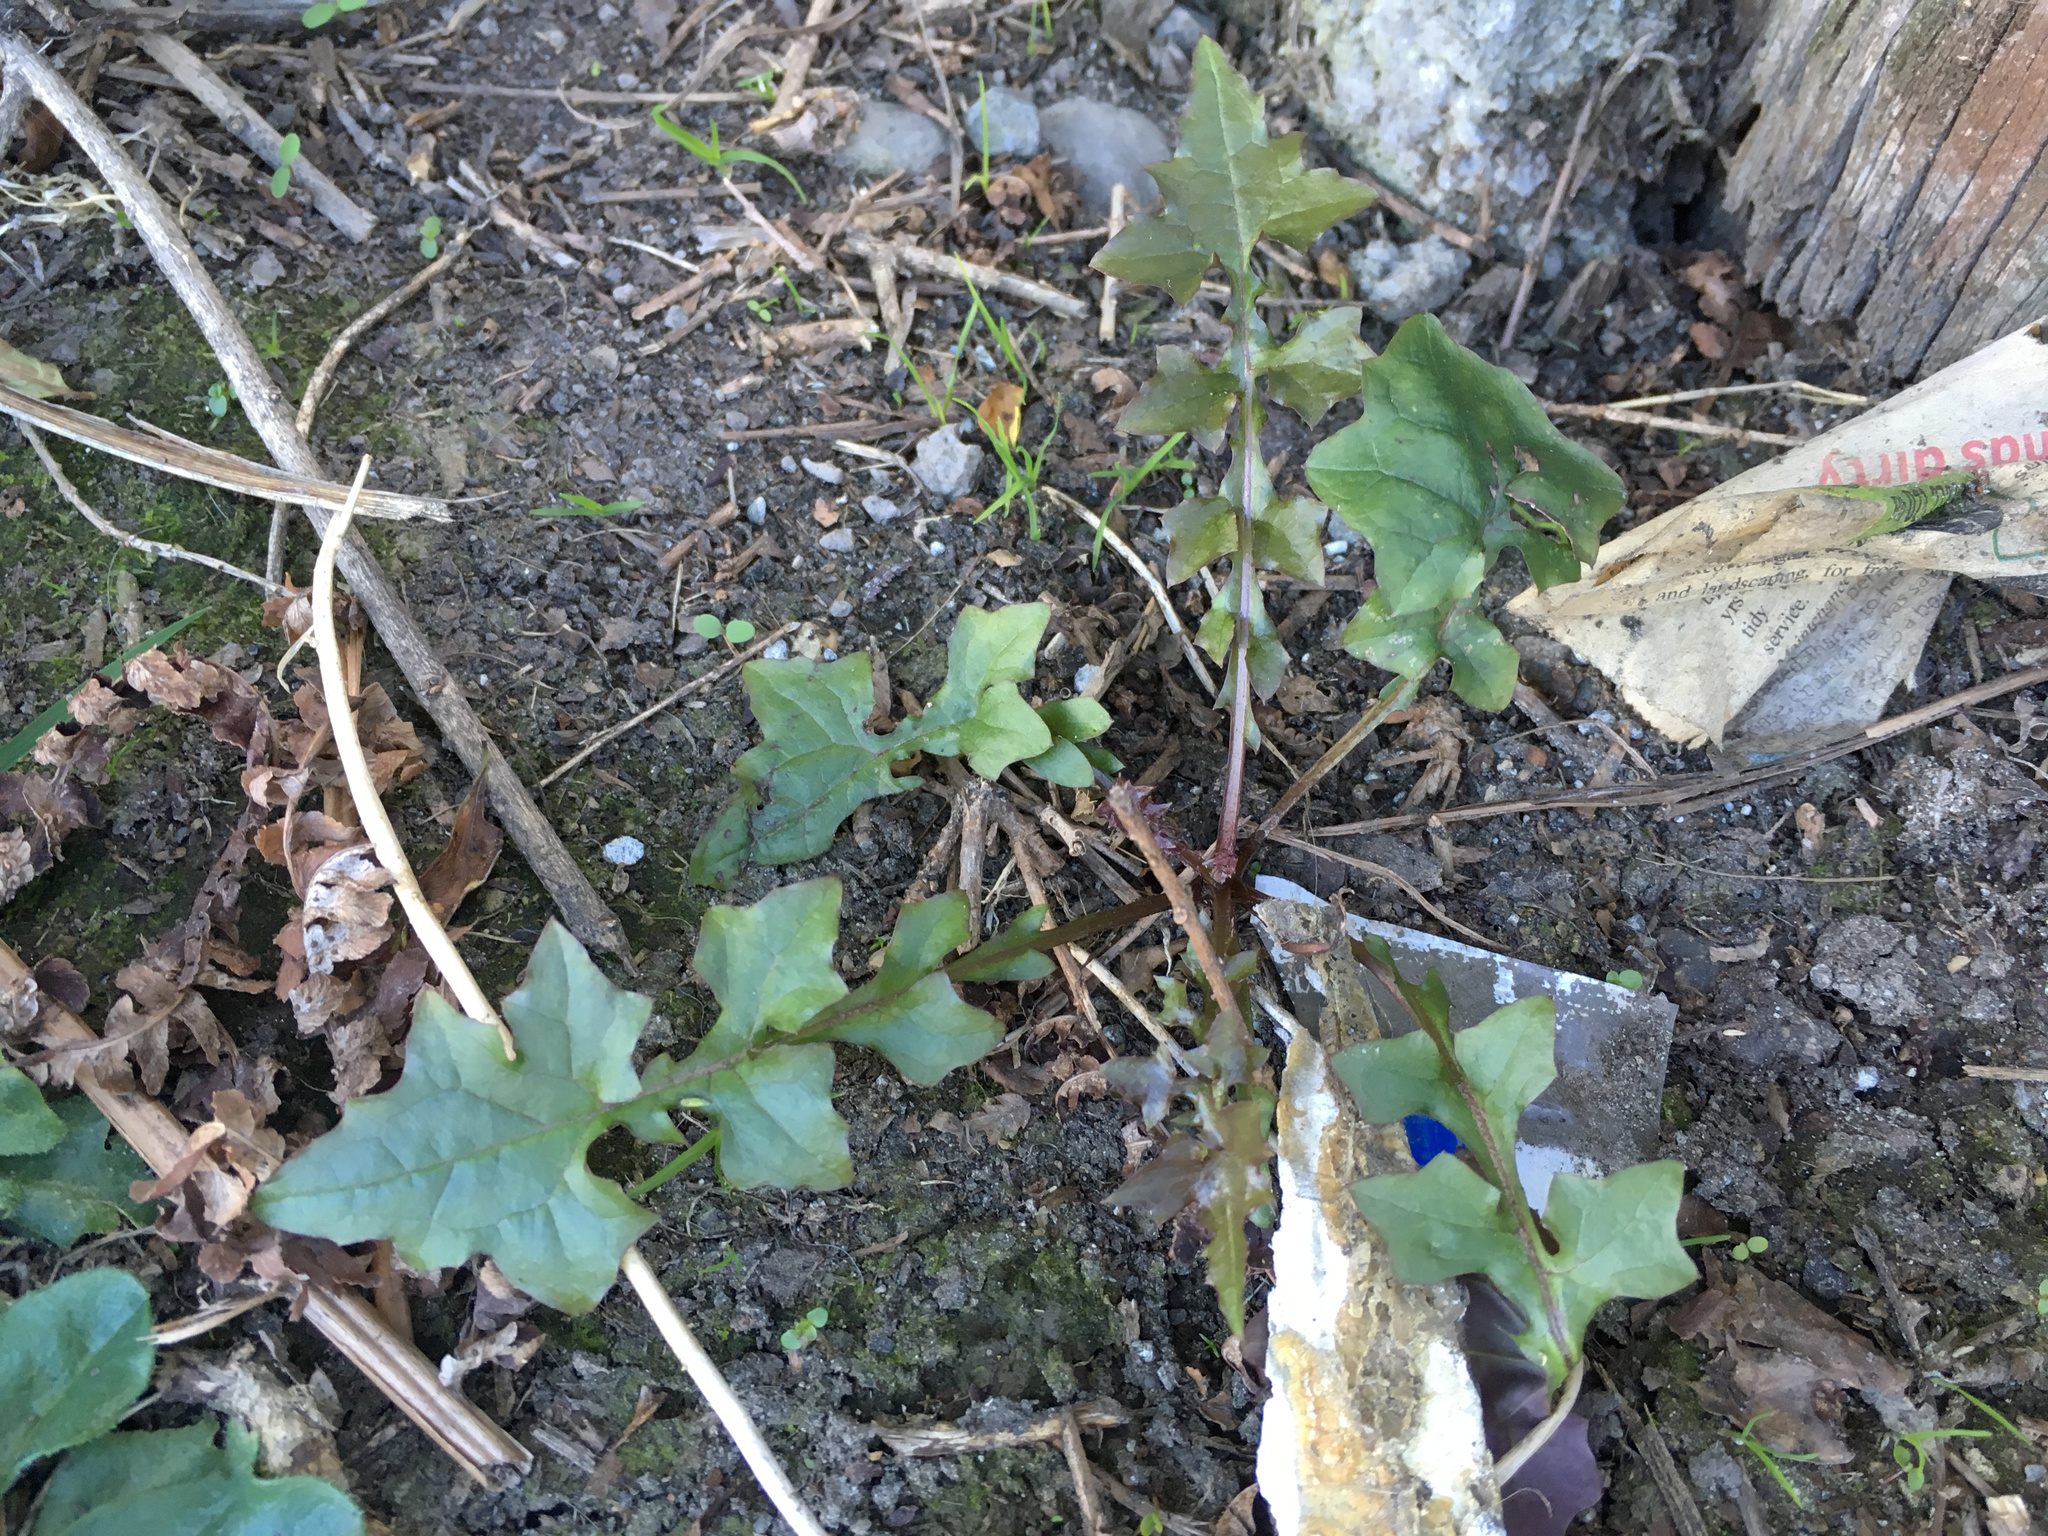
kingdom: Plantae
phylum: Tracheophyta
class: Magnoliopsida
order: Asterales
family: Asteraceae
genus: Mycelis
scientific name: Mycelis muralis
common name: Wall lettuce
